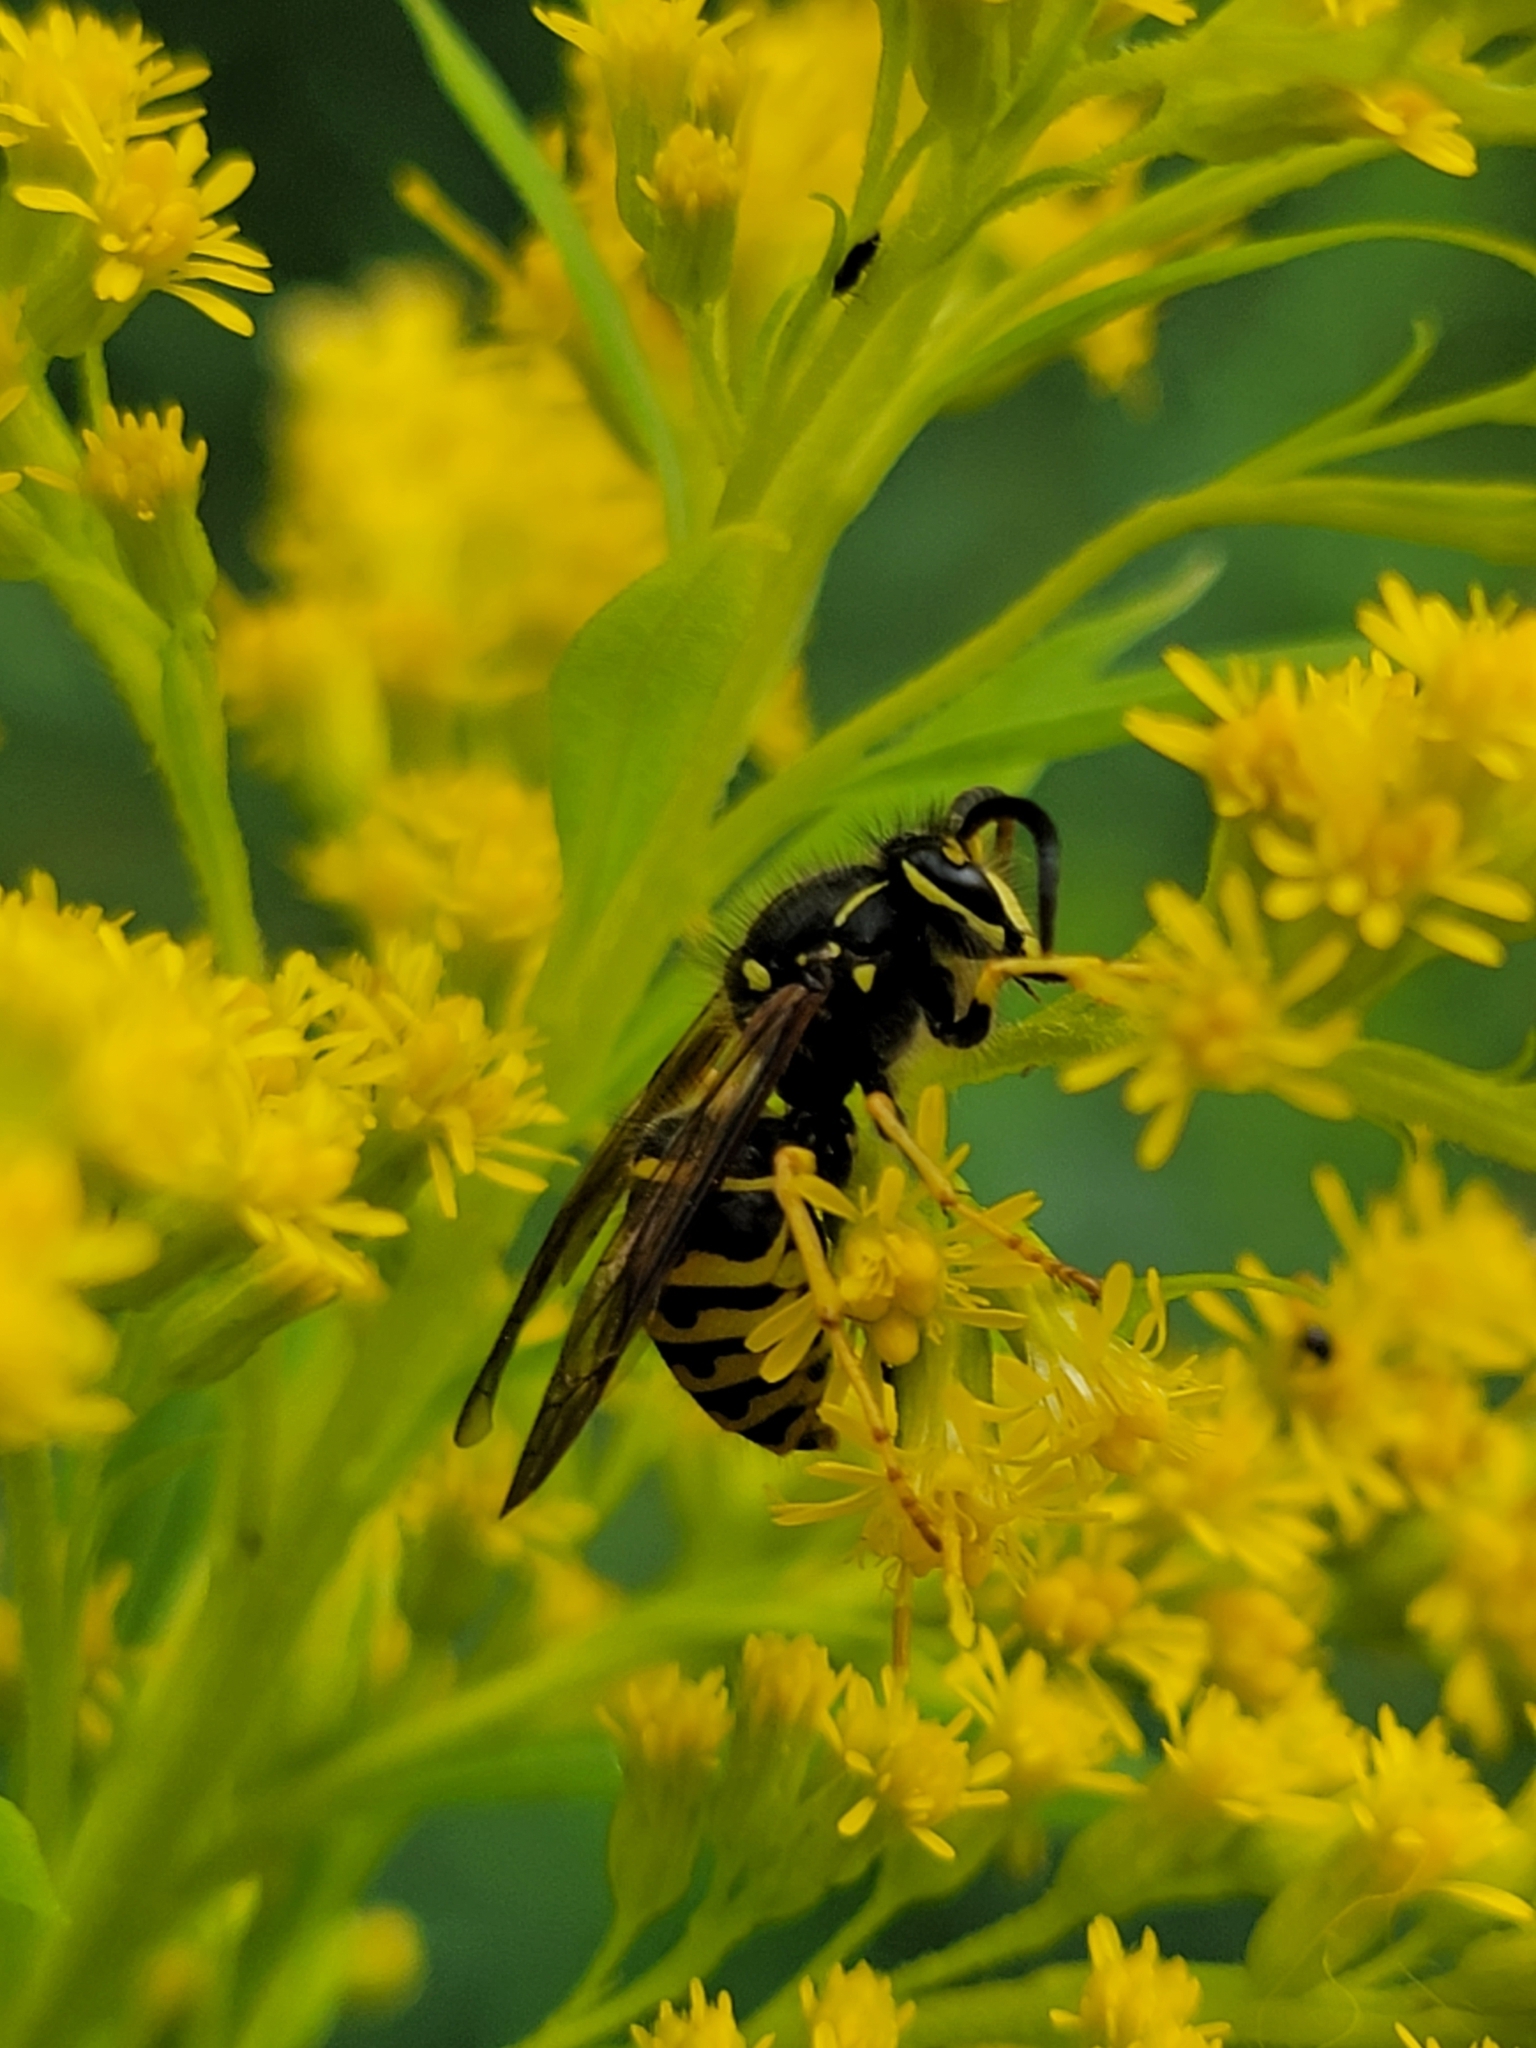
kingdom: Animalia
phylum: Arthropoda
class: Insecta
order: Hymenoptera
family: Vespidae
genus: Dolichovespula
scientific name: Dolichovespula arenaria
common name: Aerial yellowjacket
